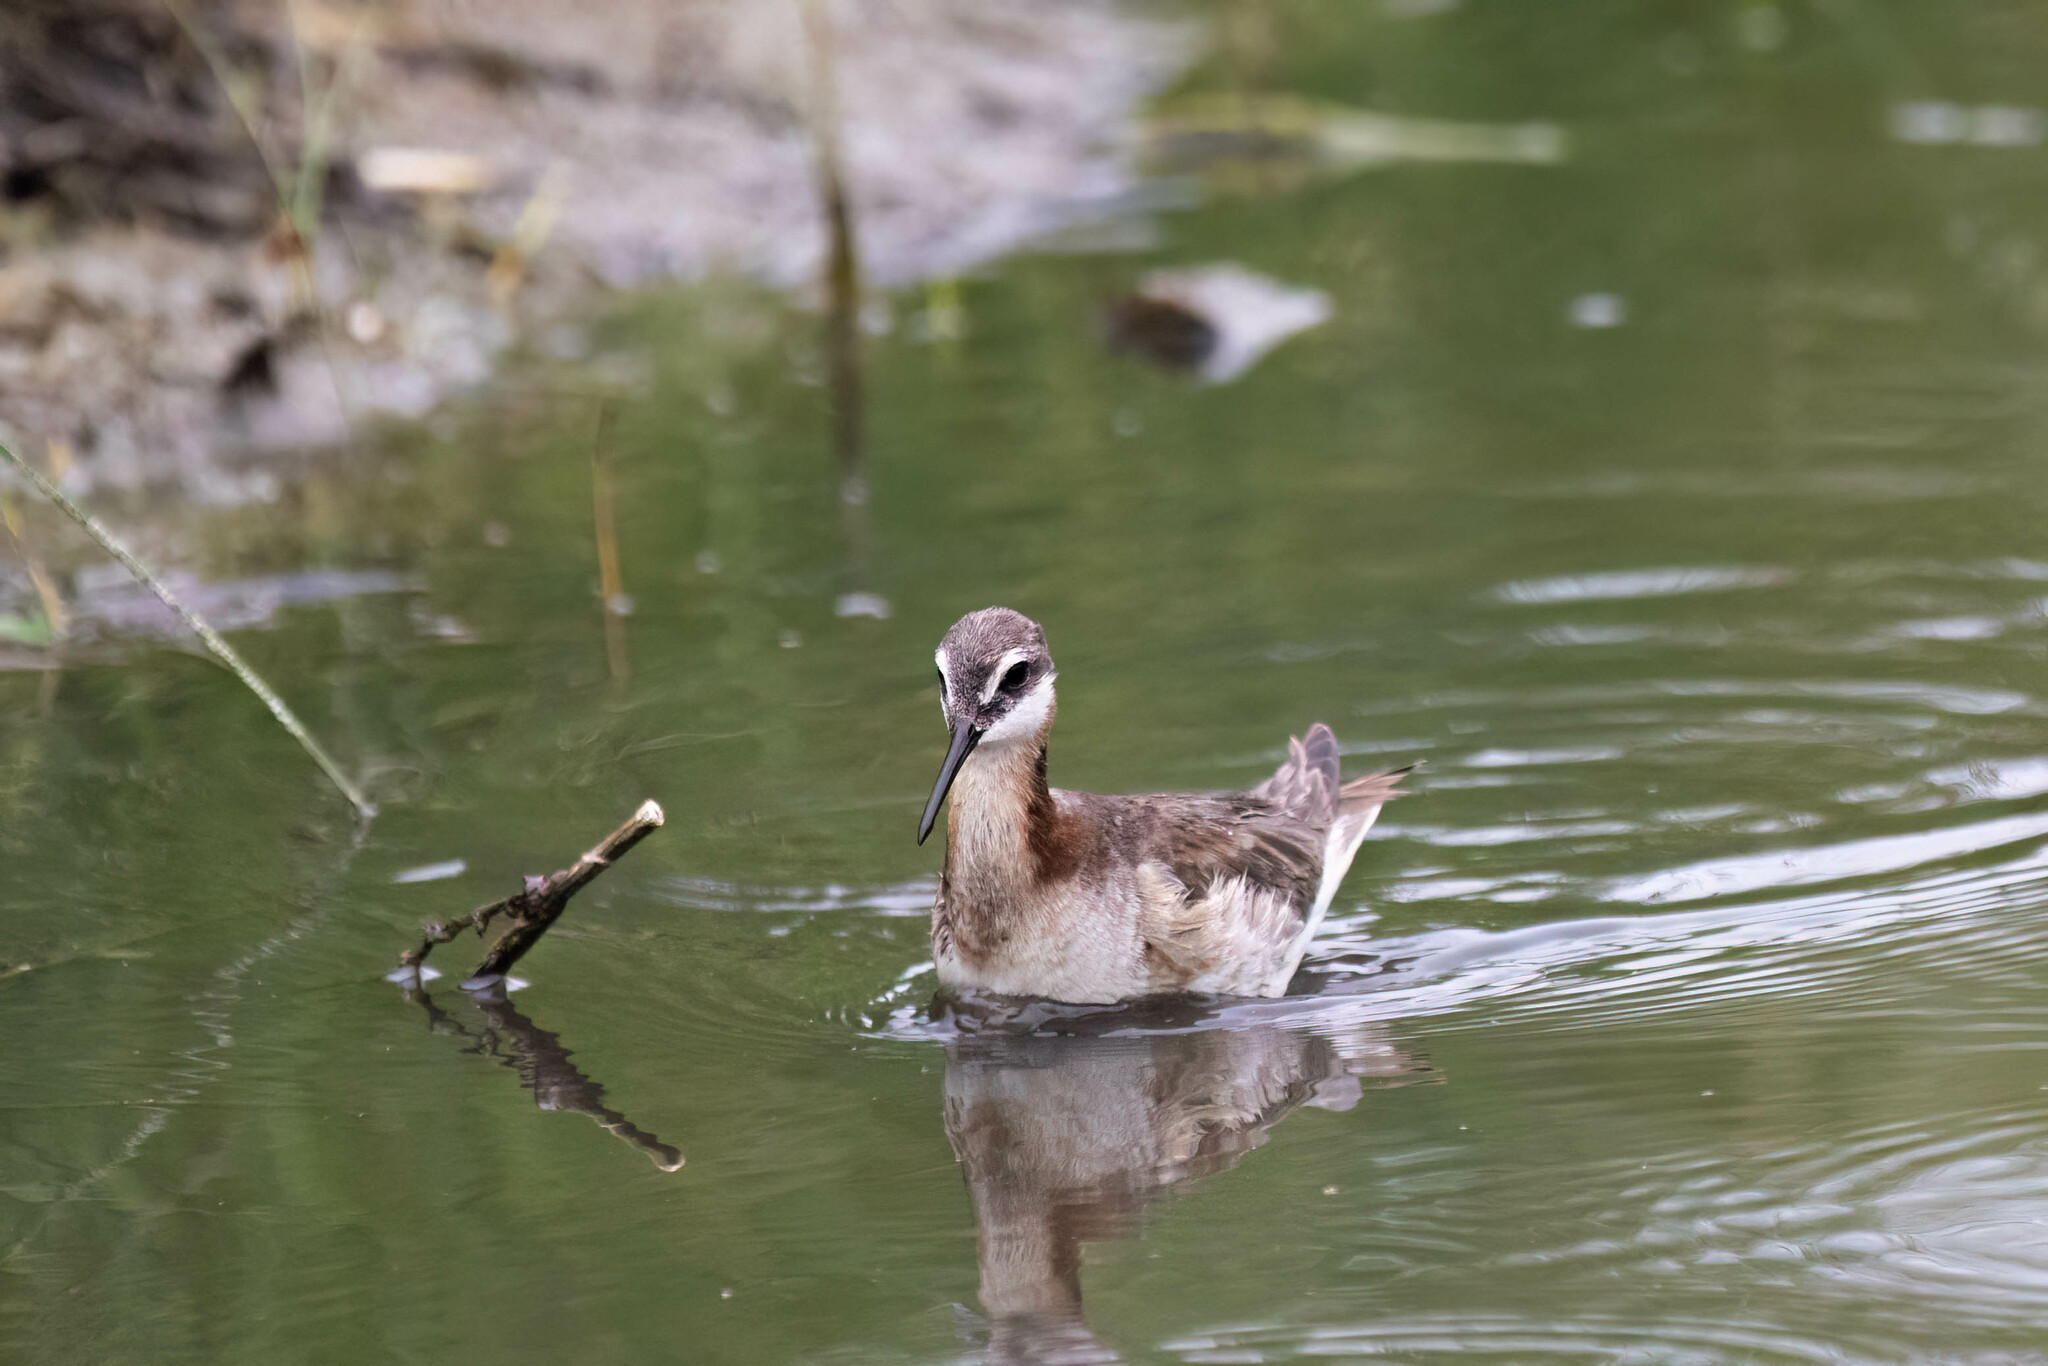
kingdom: Animalia
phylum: Chordata
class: Aves
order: Charadriiformes
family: Scolopacidae
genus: Phalaropus
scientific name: Phalaropus tricolor
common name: Wilson's phalarope
